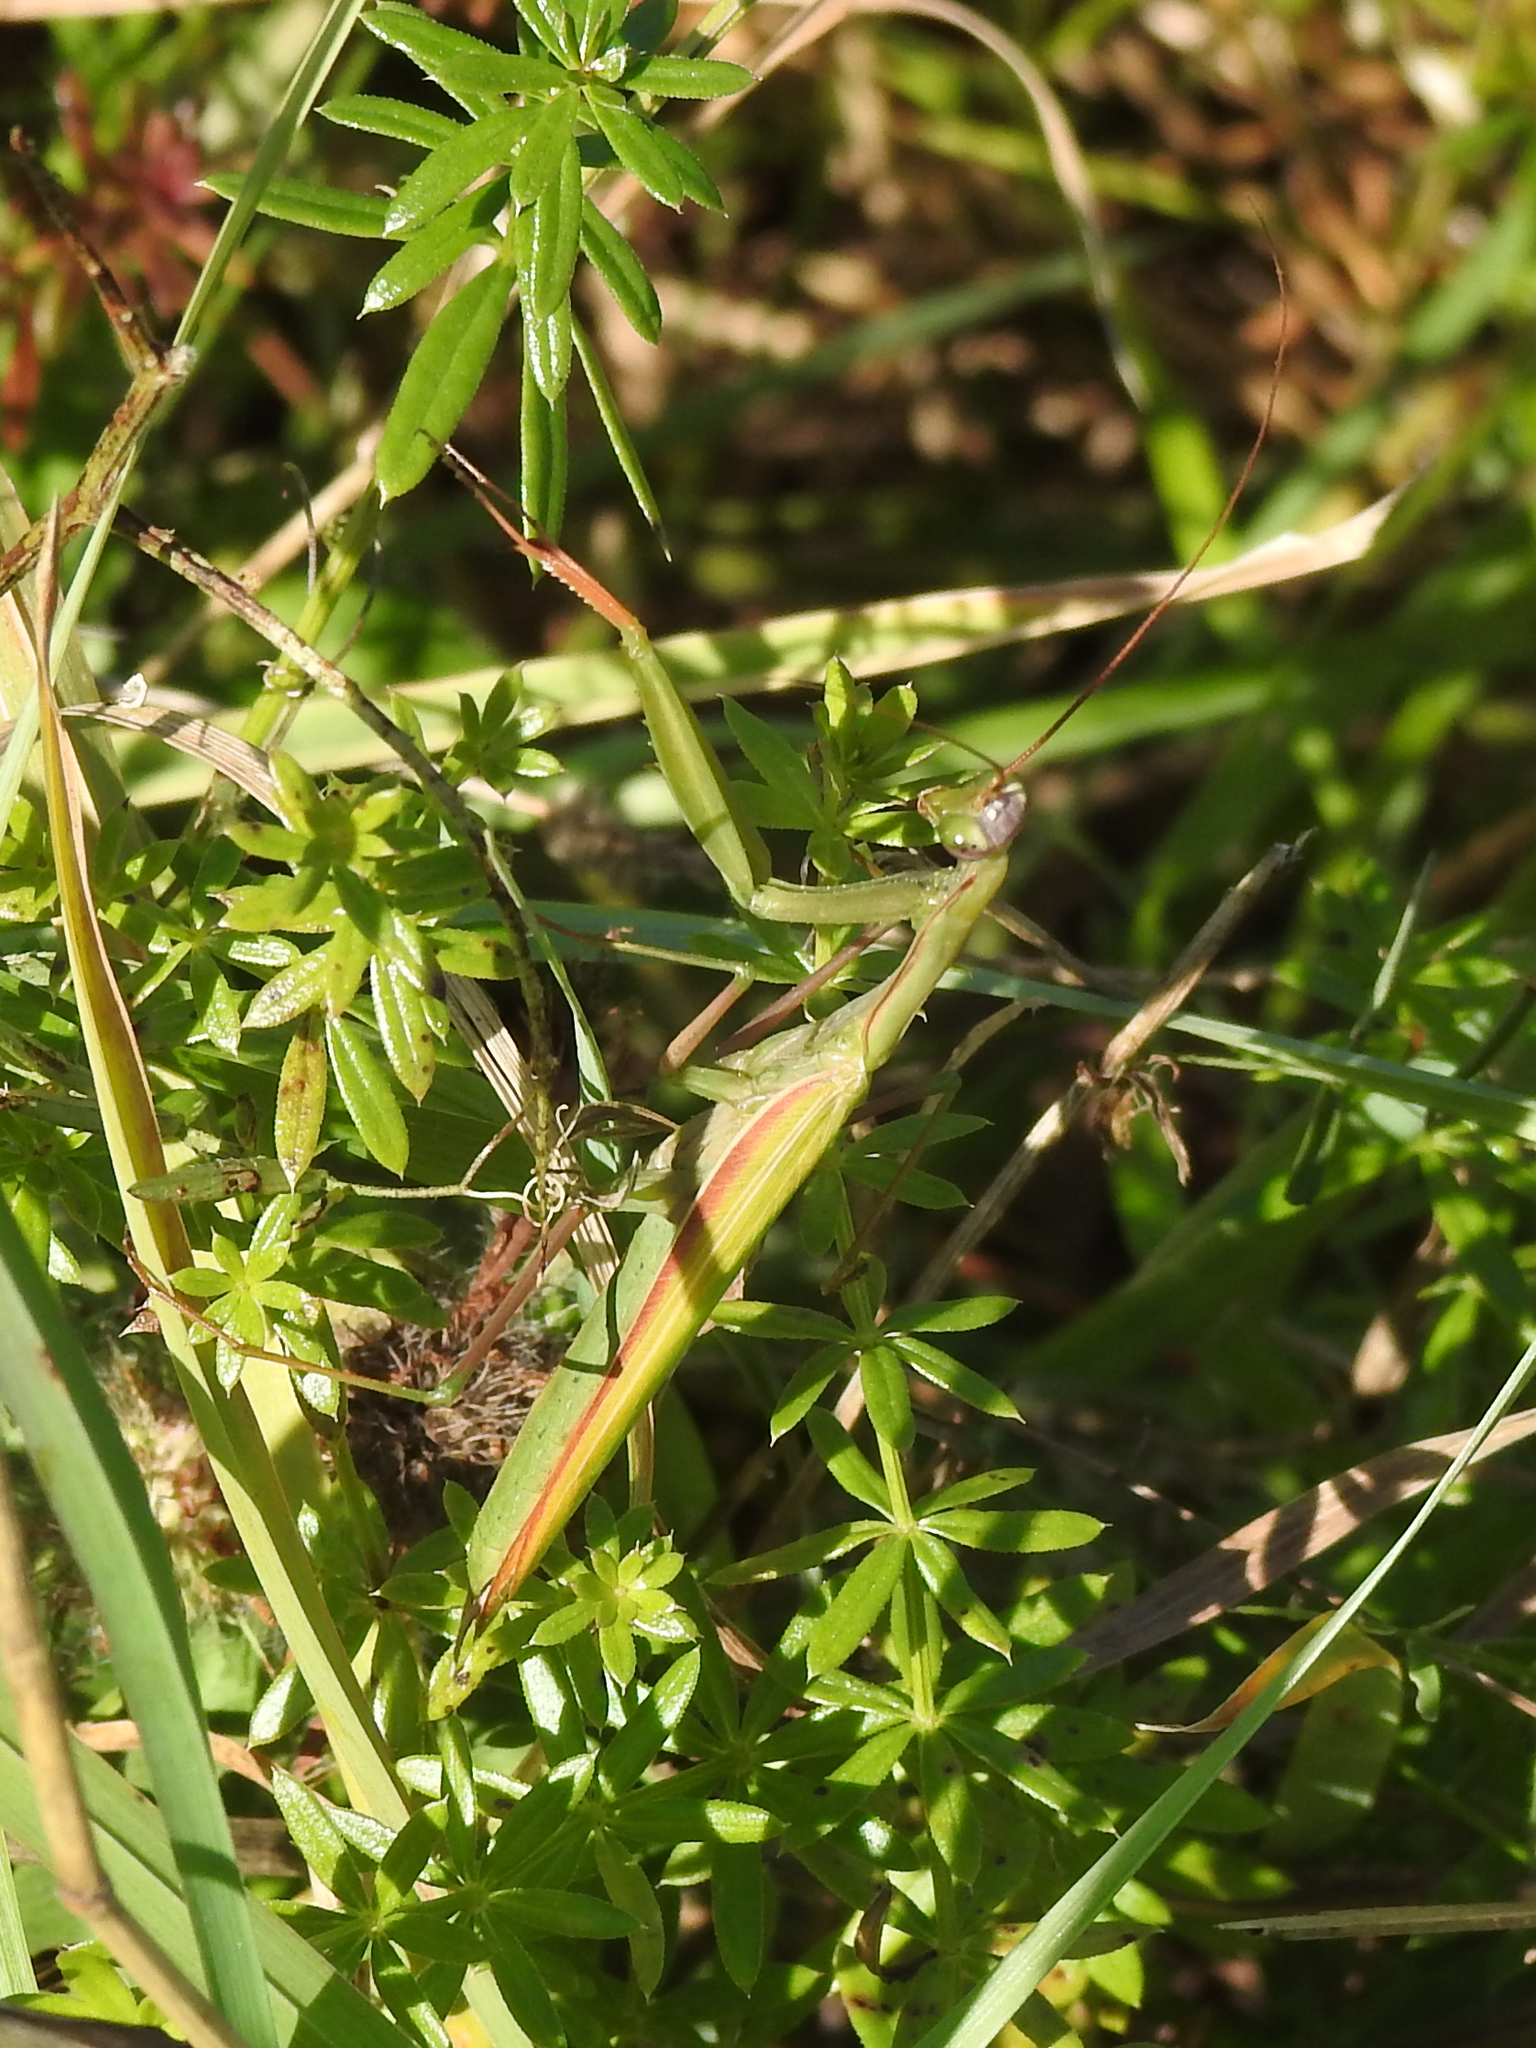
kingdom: Animalia
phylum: Arthropoda
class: Insecta
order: Mantodea
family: Mantidae
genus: Mantis
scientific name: Mantis religiosa
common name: Praying mantis
